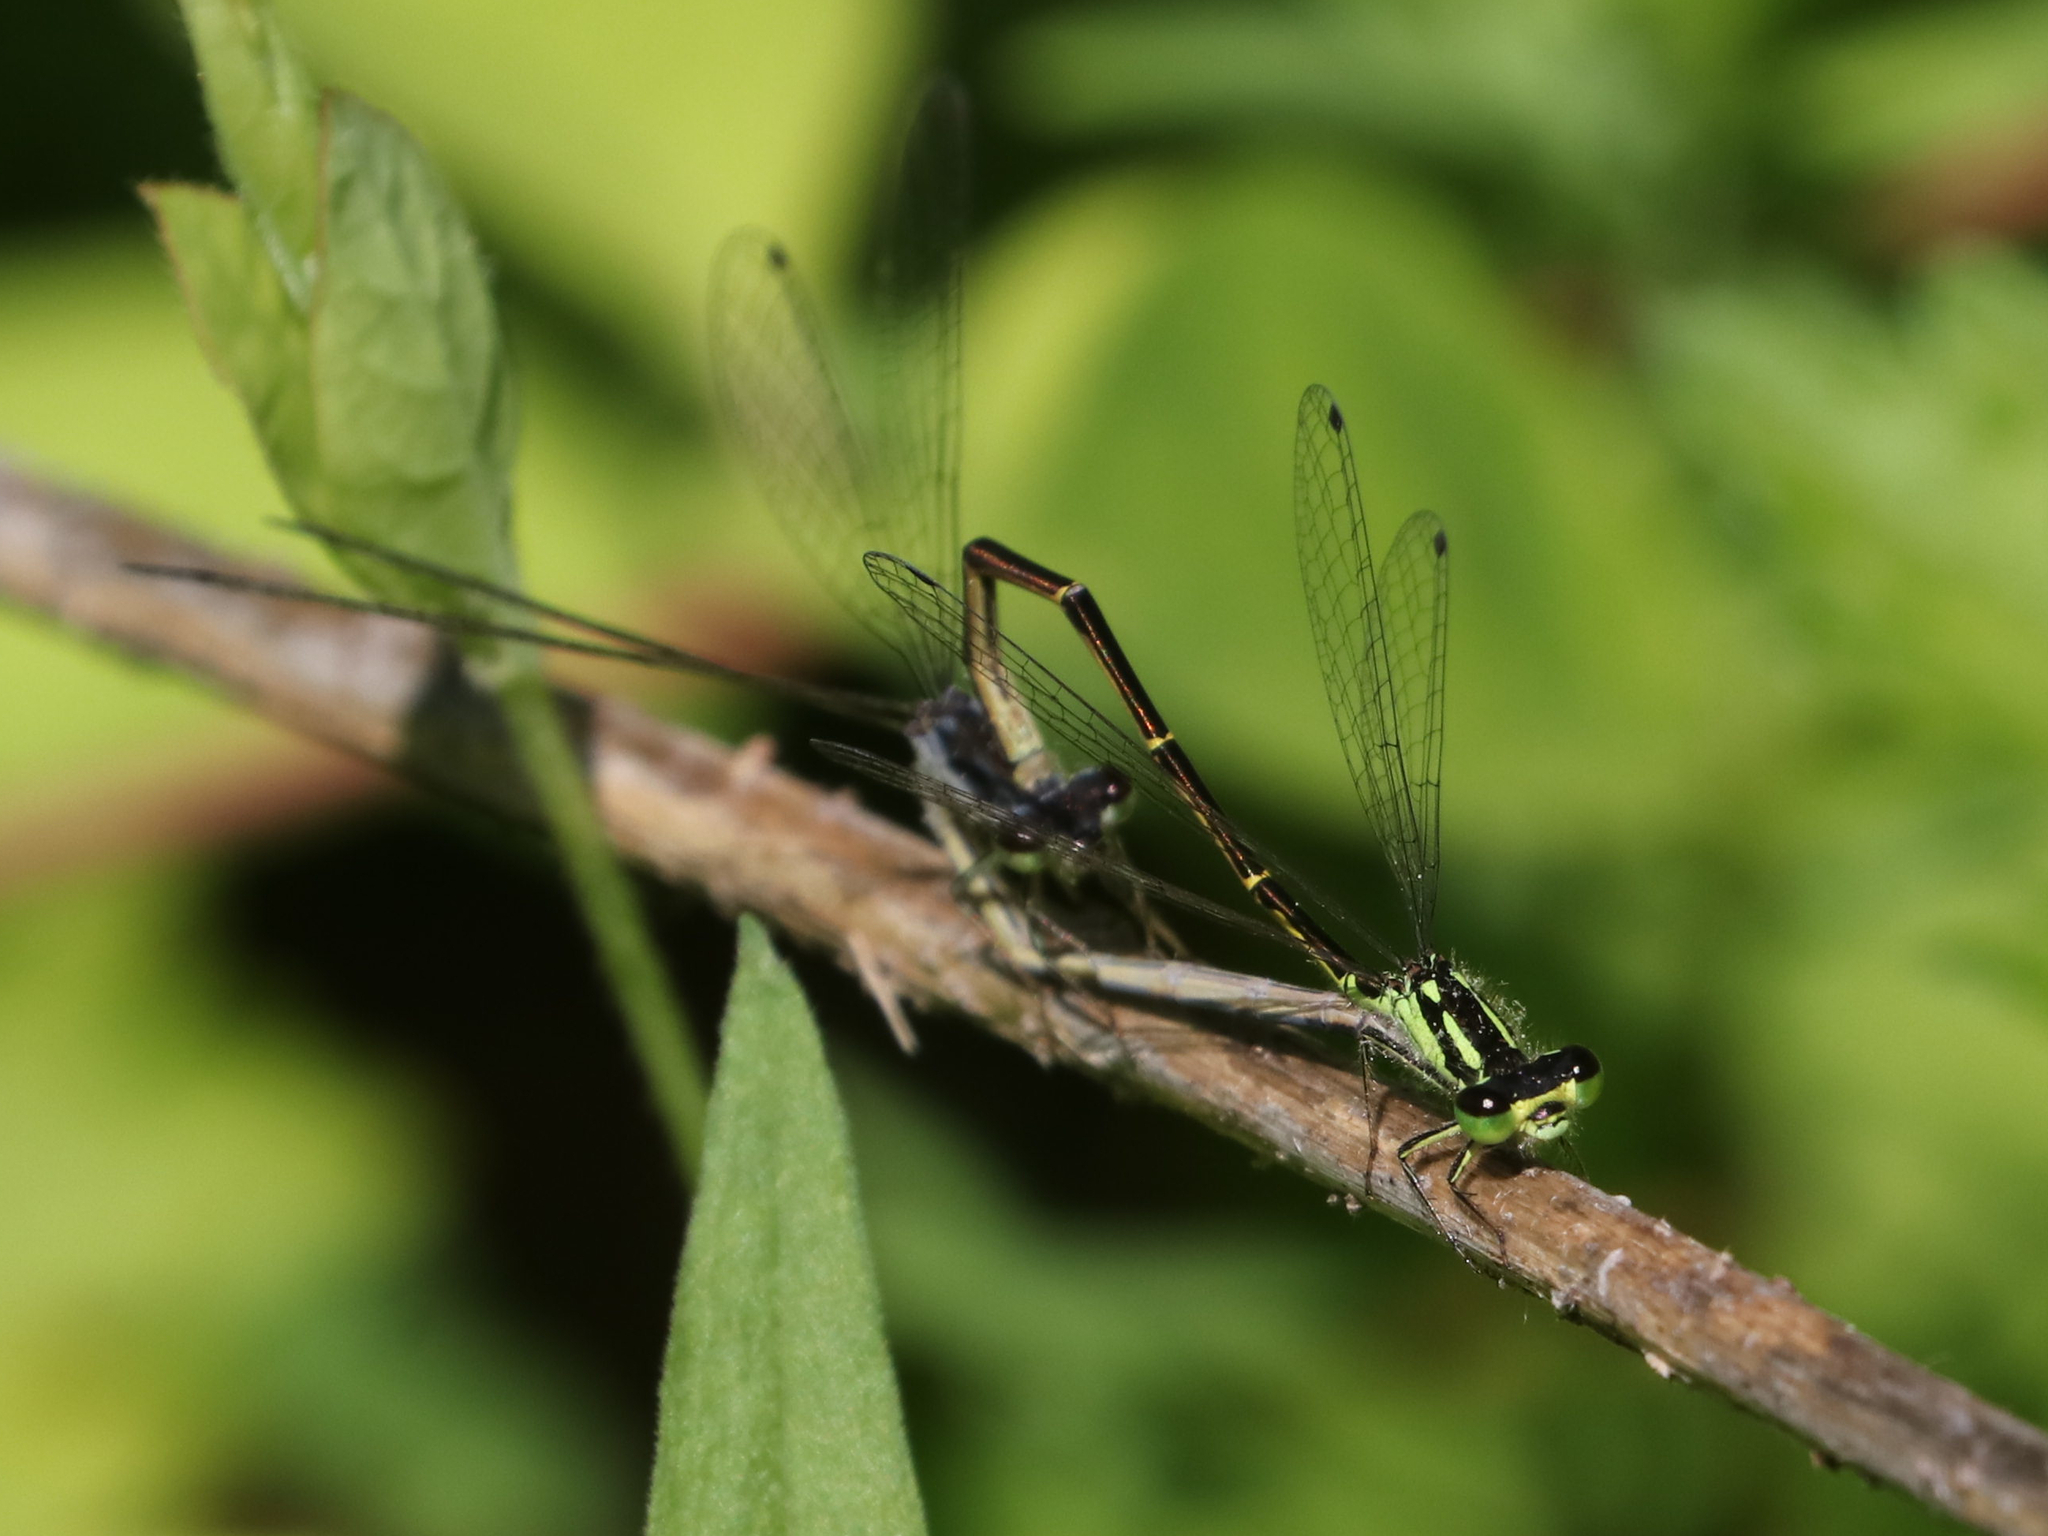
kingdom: Animalia
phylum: Arthropoda
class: Insecta
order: Odonata
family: Coenagrionidae
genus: Ischnura
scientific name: Ischnura posita
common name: Fragile forktail
